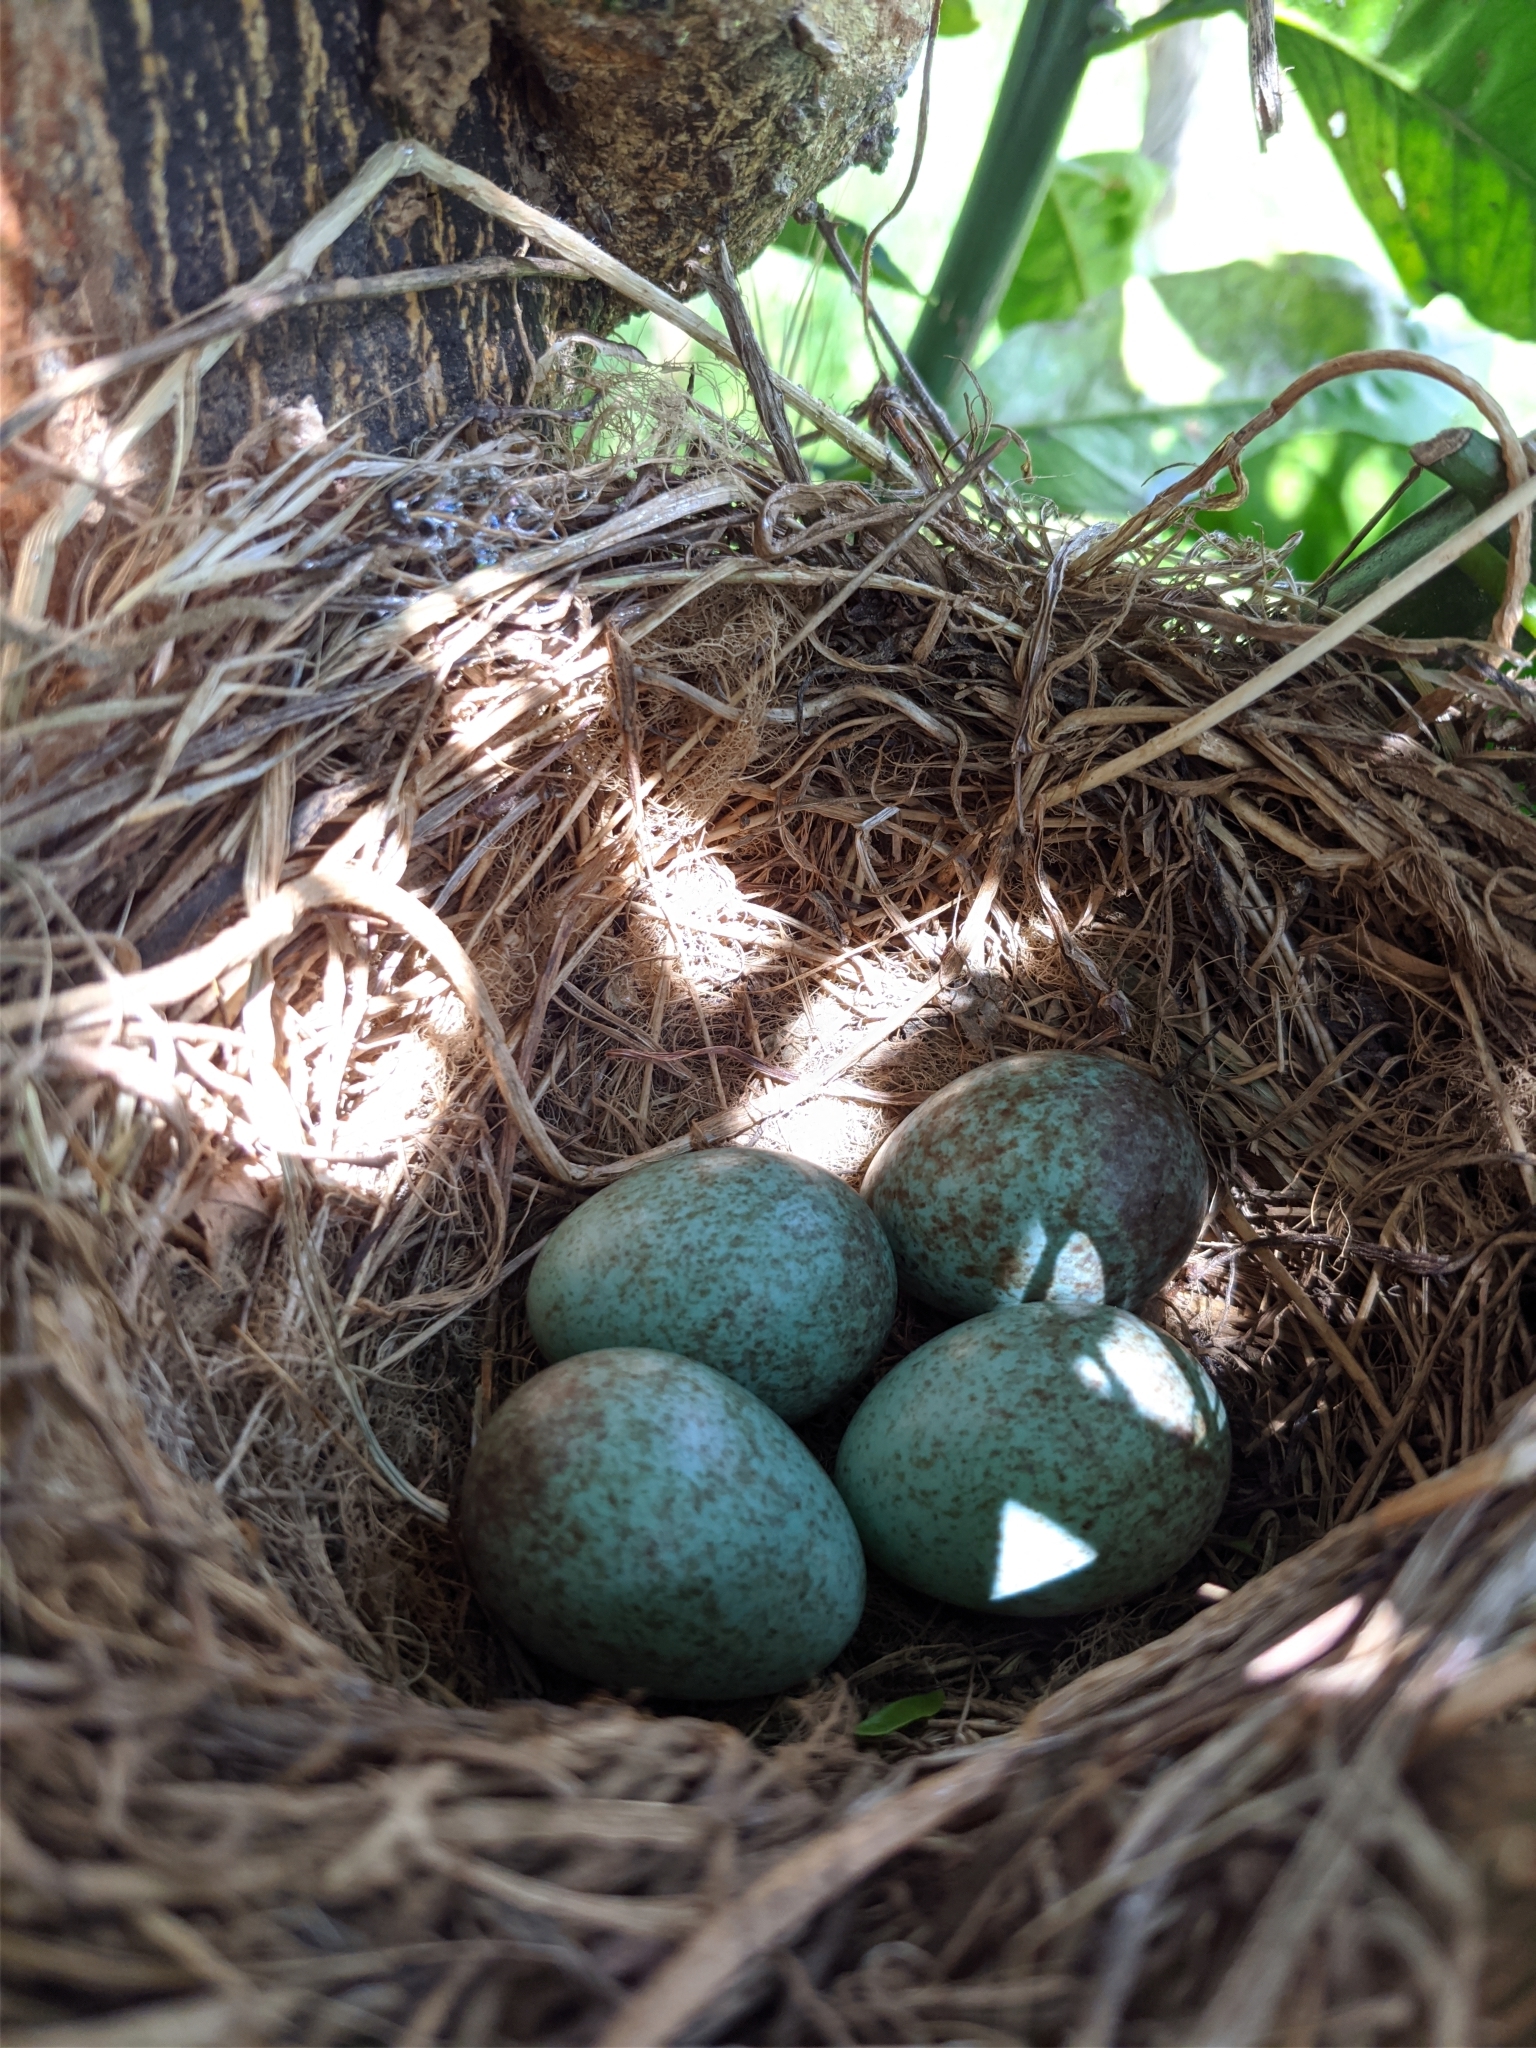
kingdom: Animalia
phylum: Chordata
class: Aves
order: Passeriformes
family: Turdidae
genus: Turdus
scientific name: Turdus merula
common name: Common blackbird
